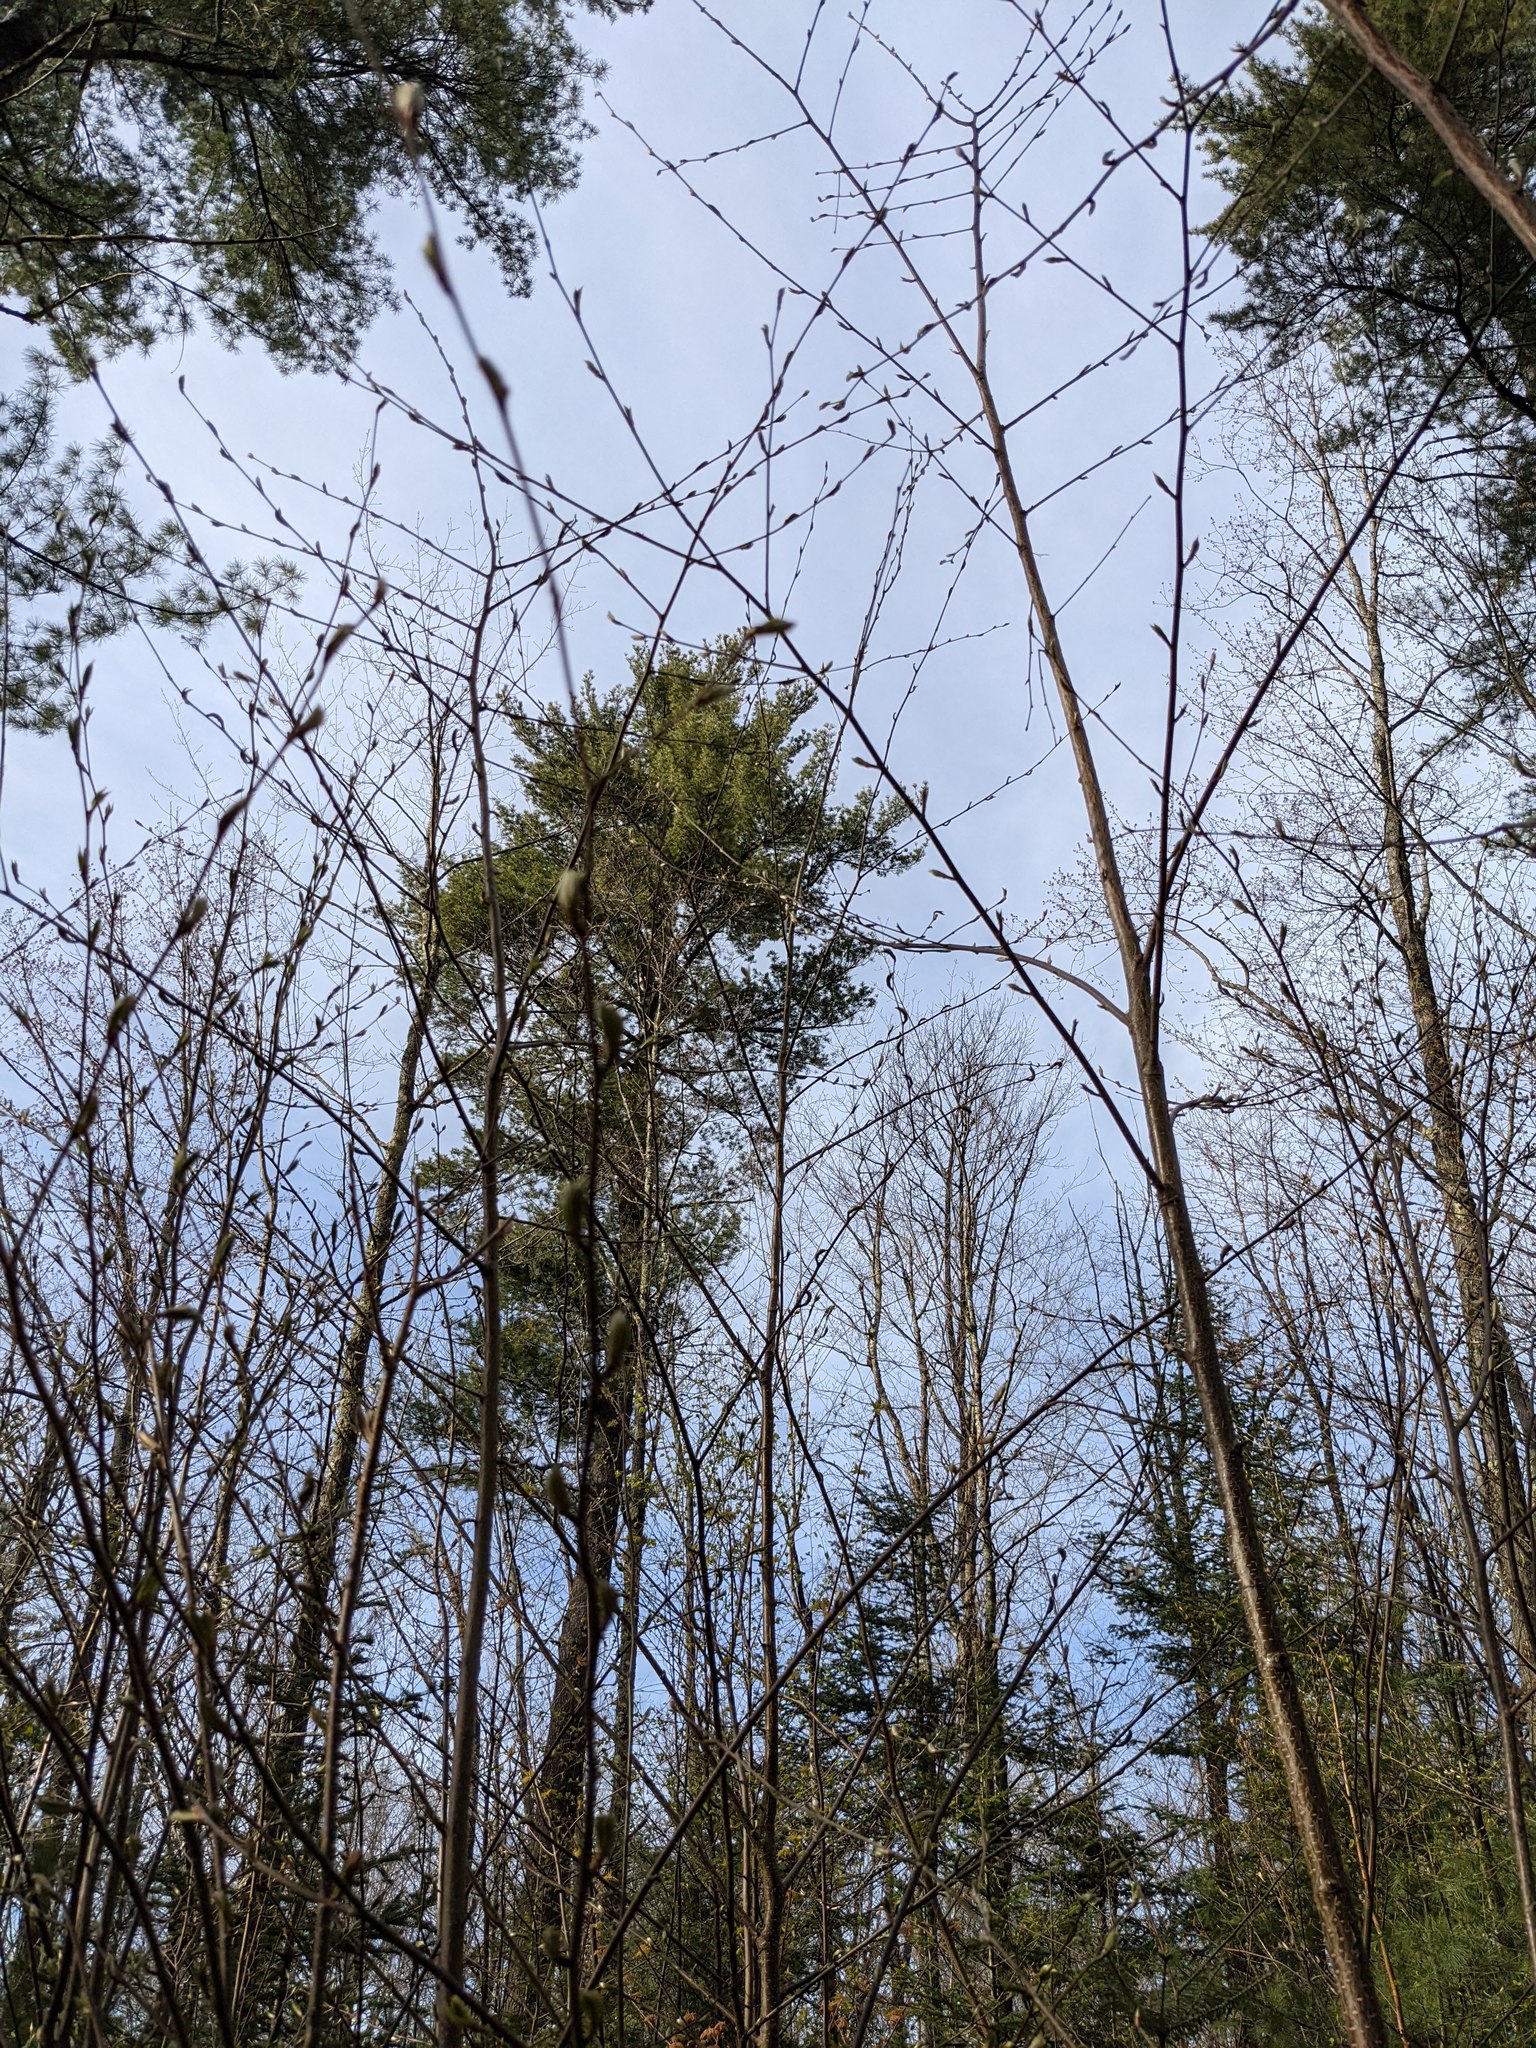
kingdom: Plantae
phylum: Tracheophyta
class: Pinopsida
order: Pinales
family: Pinaceae
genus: Pinus
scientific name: Pinus strobus
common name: Weymouth pine
